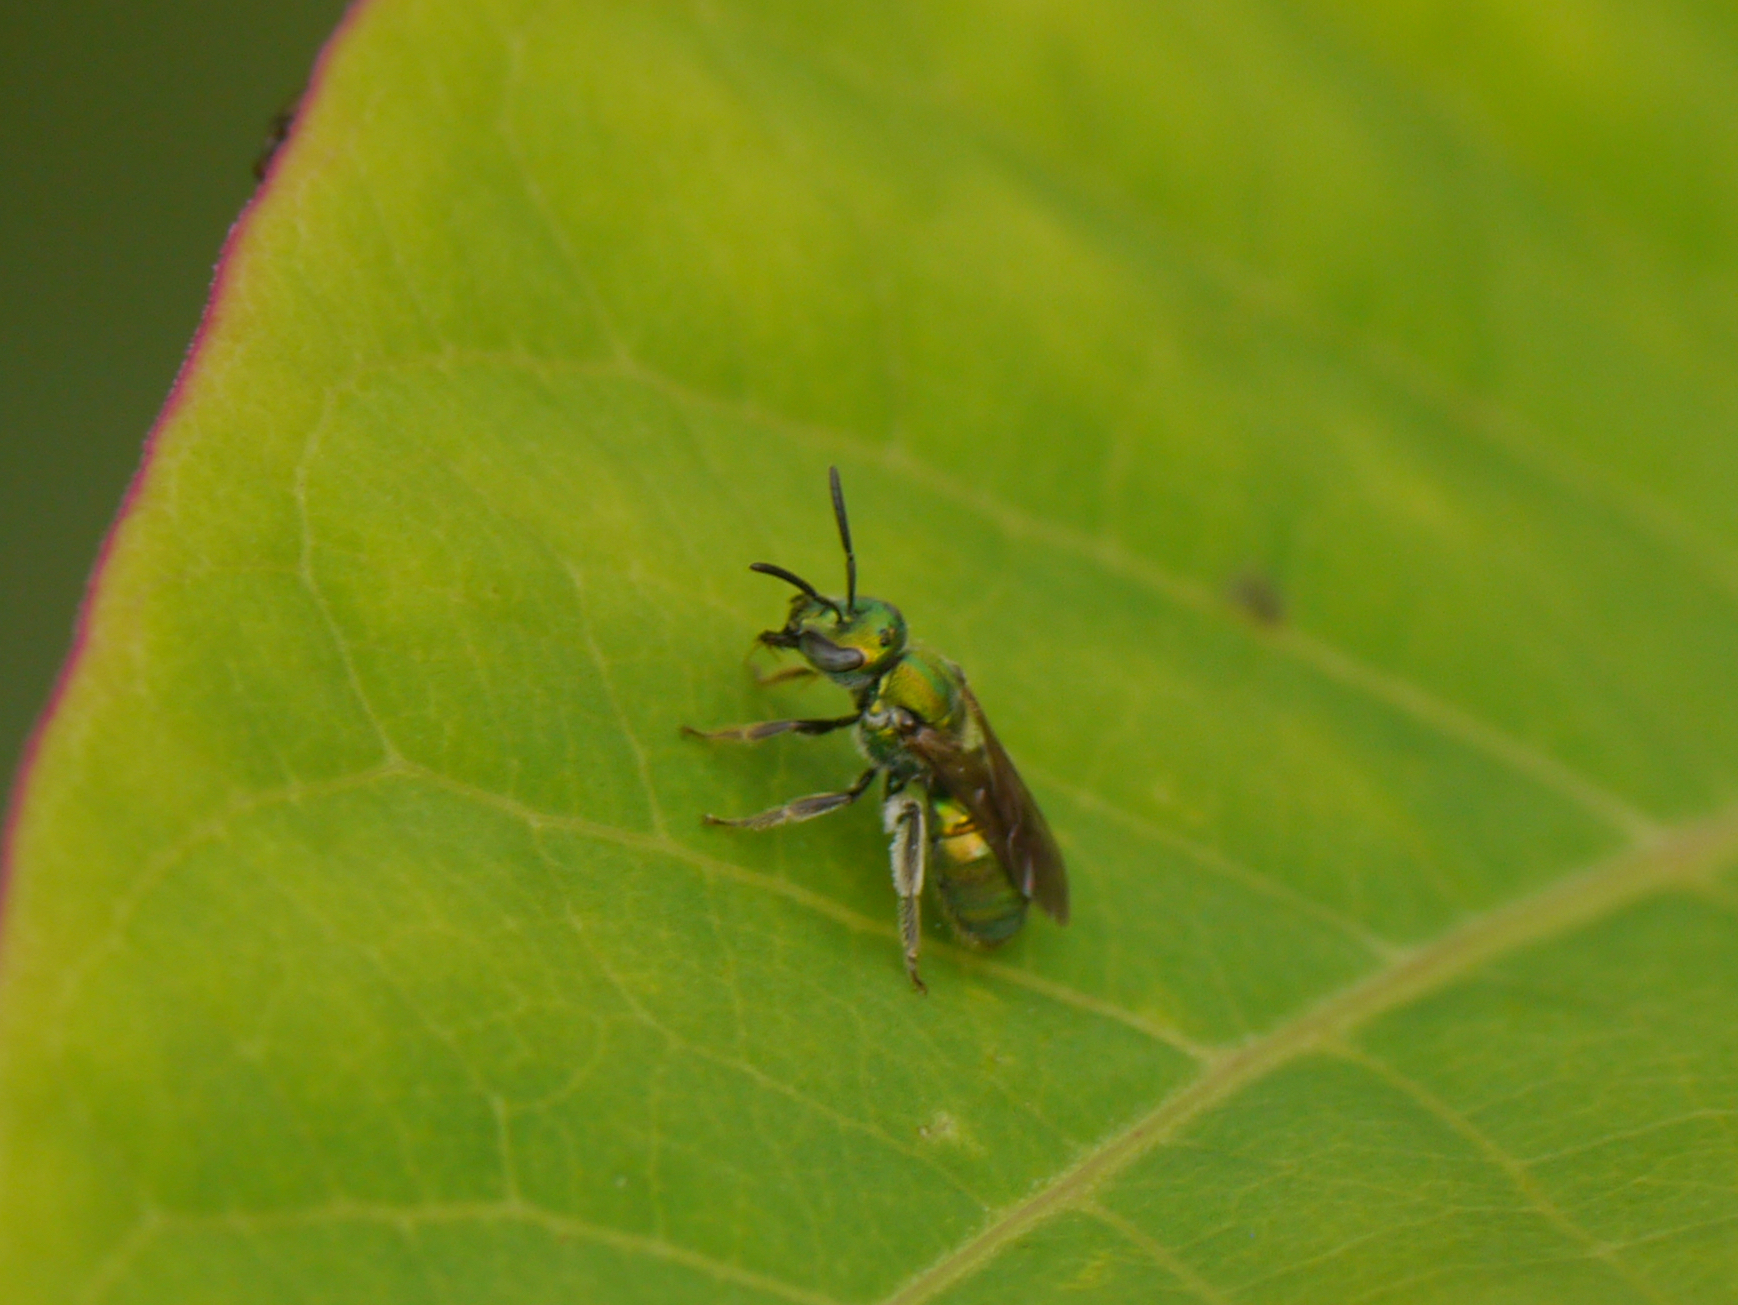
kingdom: Animalia
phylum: Arthropoda
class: Insecta
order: Hymenoptera
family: Halictidae
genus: Augochlora
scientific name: Augochlora pura
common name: Pure green sweat bee
